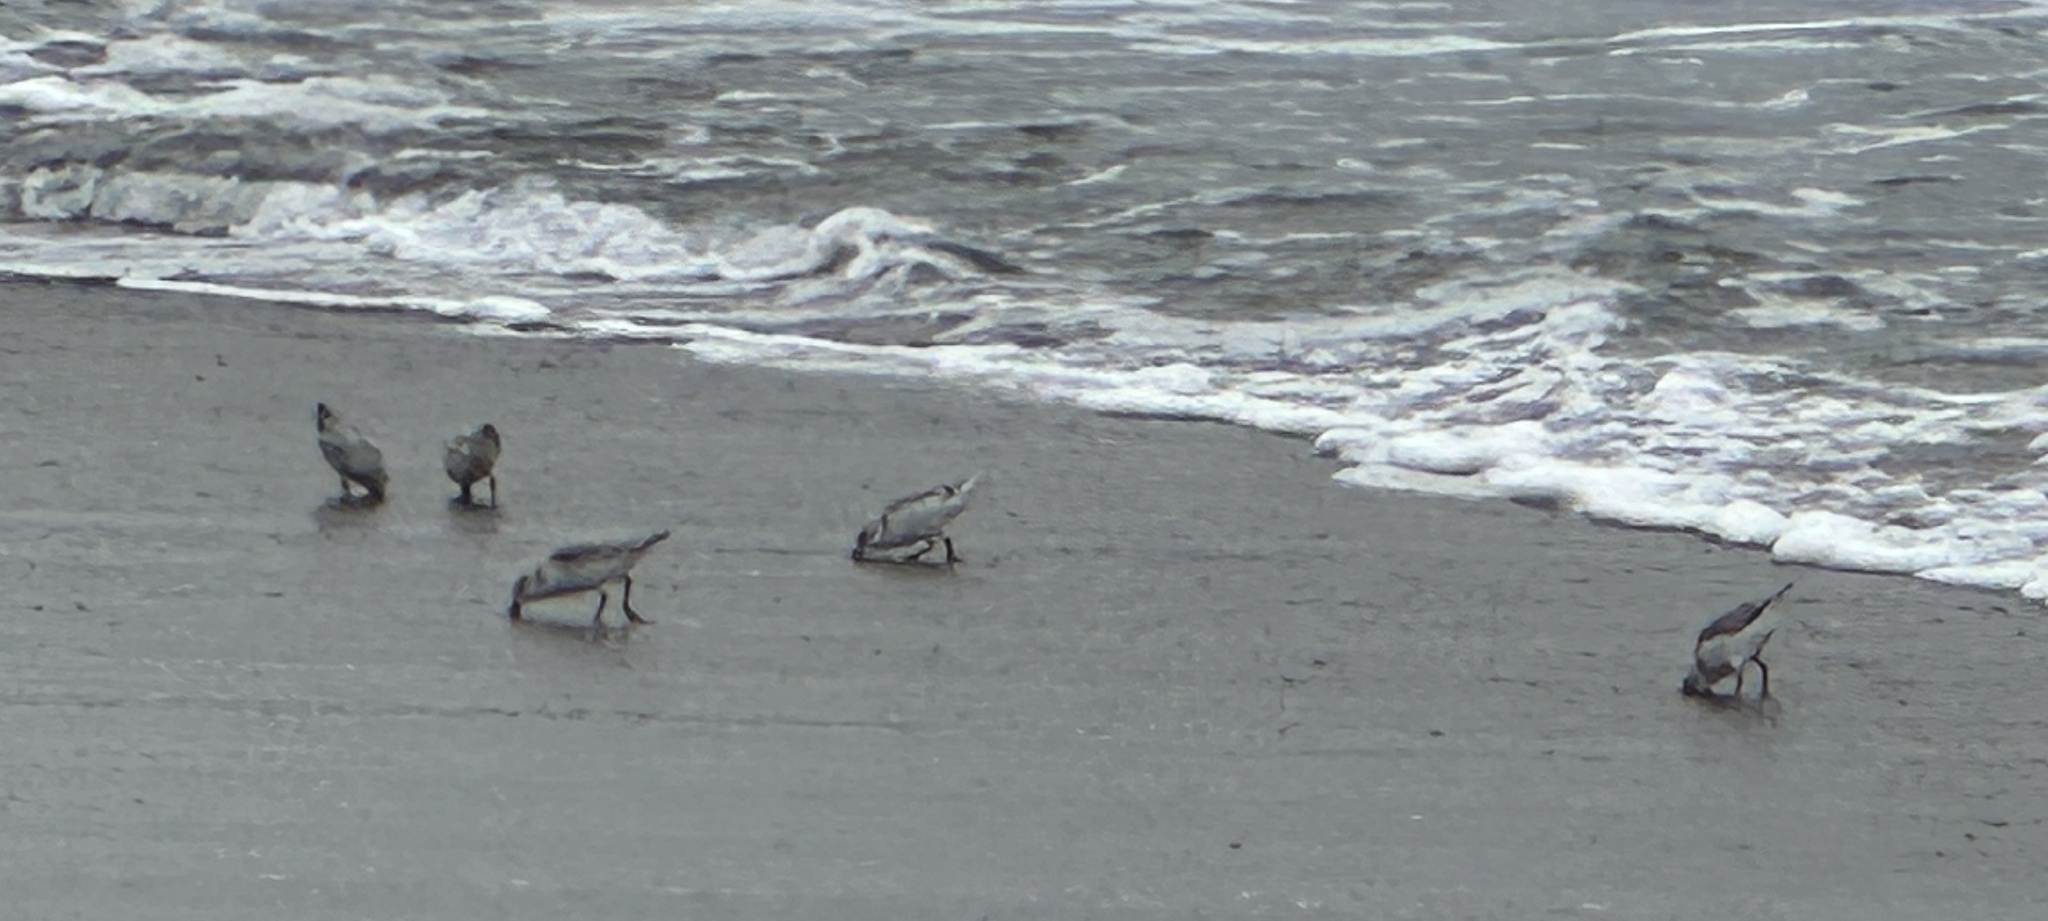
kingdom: Animalia
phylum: Chordata
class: Aves
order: Charadriiformes
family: Charadriidae
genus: Anarhynchus
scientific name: Anarhynchus
